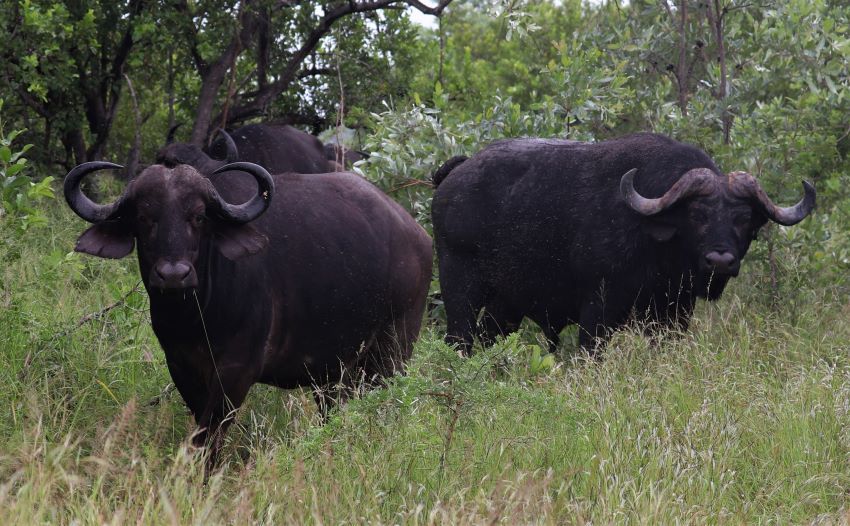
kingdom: Animalia
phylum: Chordata
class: Mammalia
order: Artiodactyla
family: Bovidae
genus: Syncerus
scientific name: Syncerus caffer
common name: African buffalo
